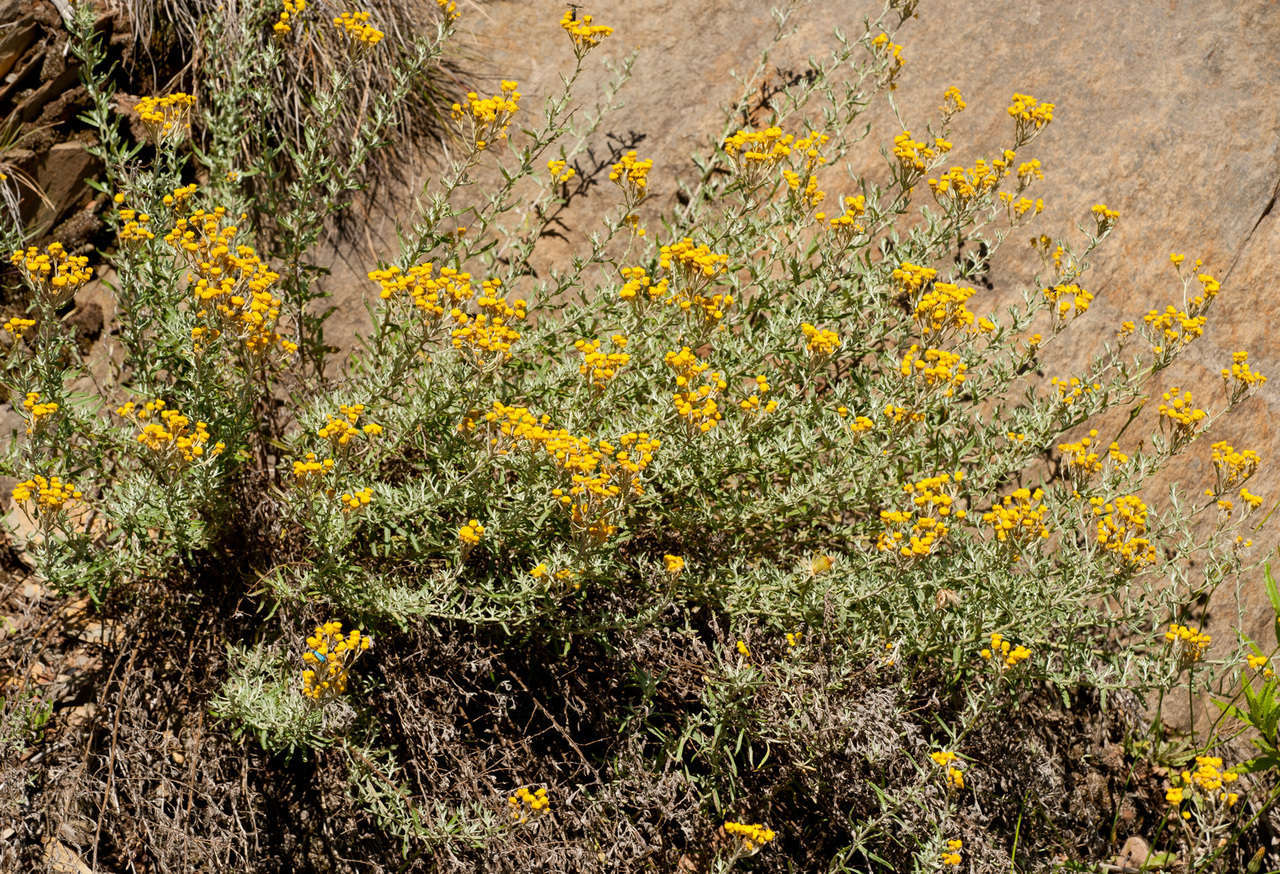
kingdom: Plantae
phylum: Tracheophyta
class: Magnoliopsida
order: Asterales
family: Asteraceae
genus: Chrysocephalum
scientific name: Chrysocephalum semipapposum
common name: Clustered everlasting
